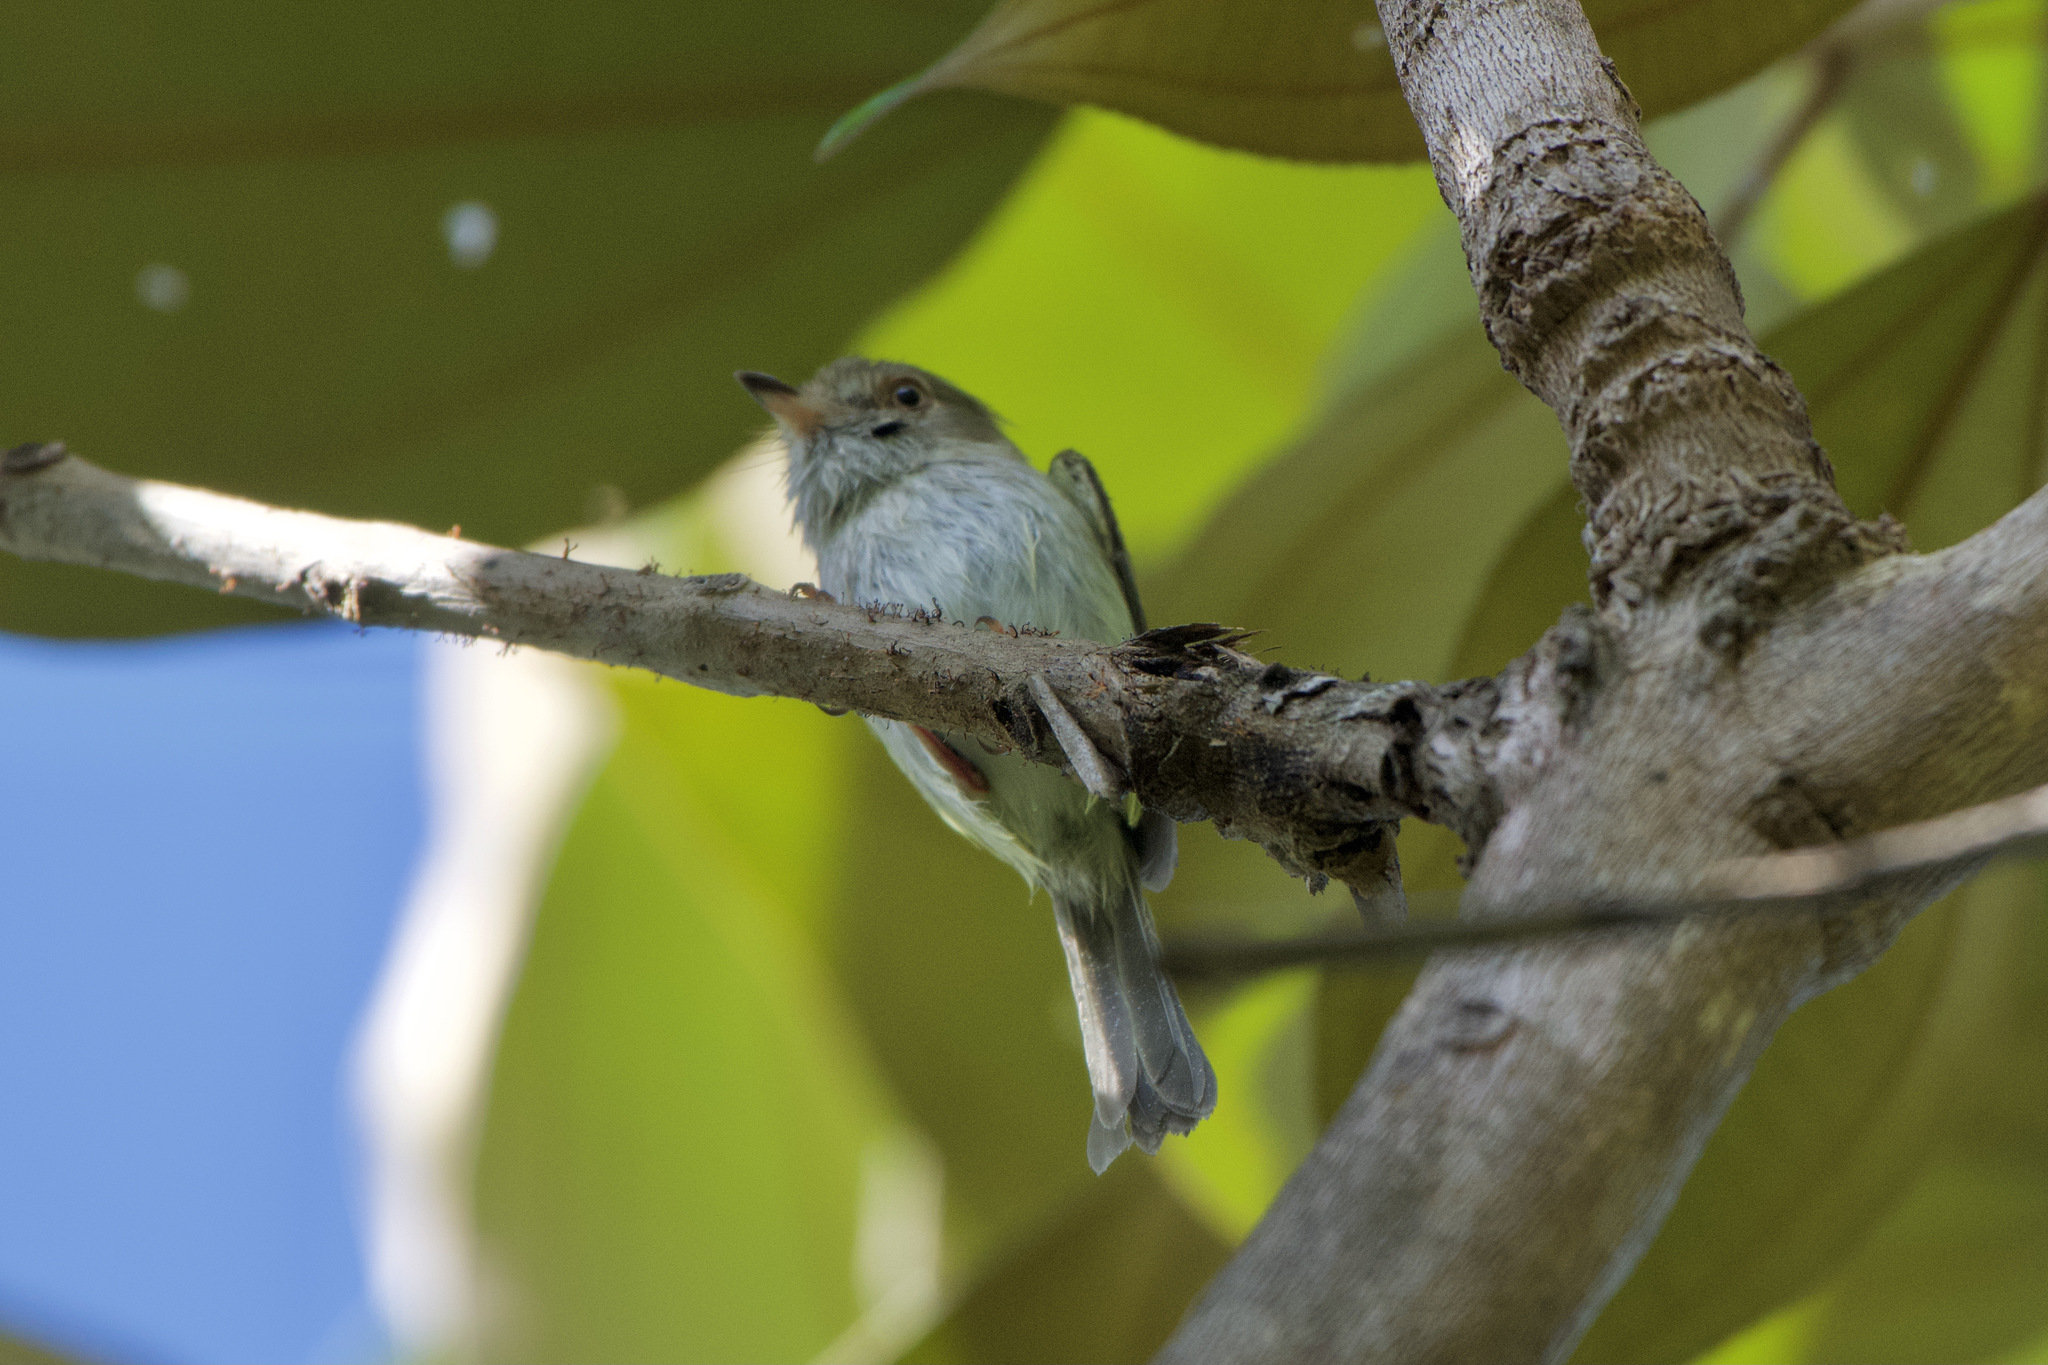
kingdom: Animalia
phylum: Chordata
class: Aves
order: Passeriformes
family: Tyrannidae
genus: Atalotriccus
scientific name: Atalotriccus pilaris
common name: Pale-eyed pygmy-tyrant
